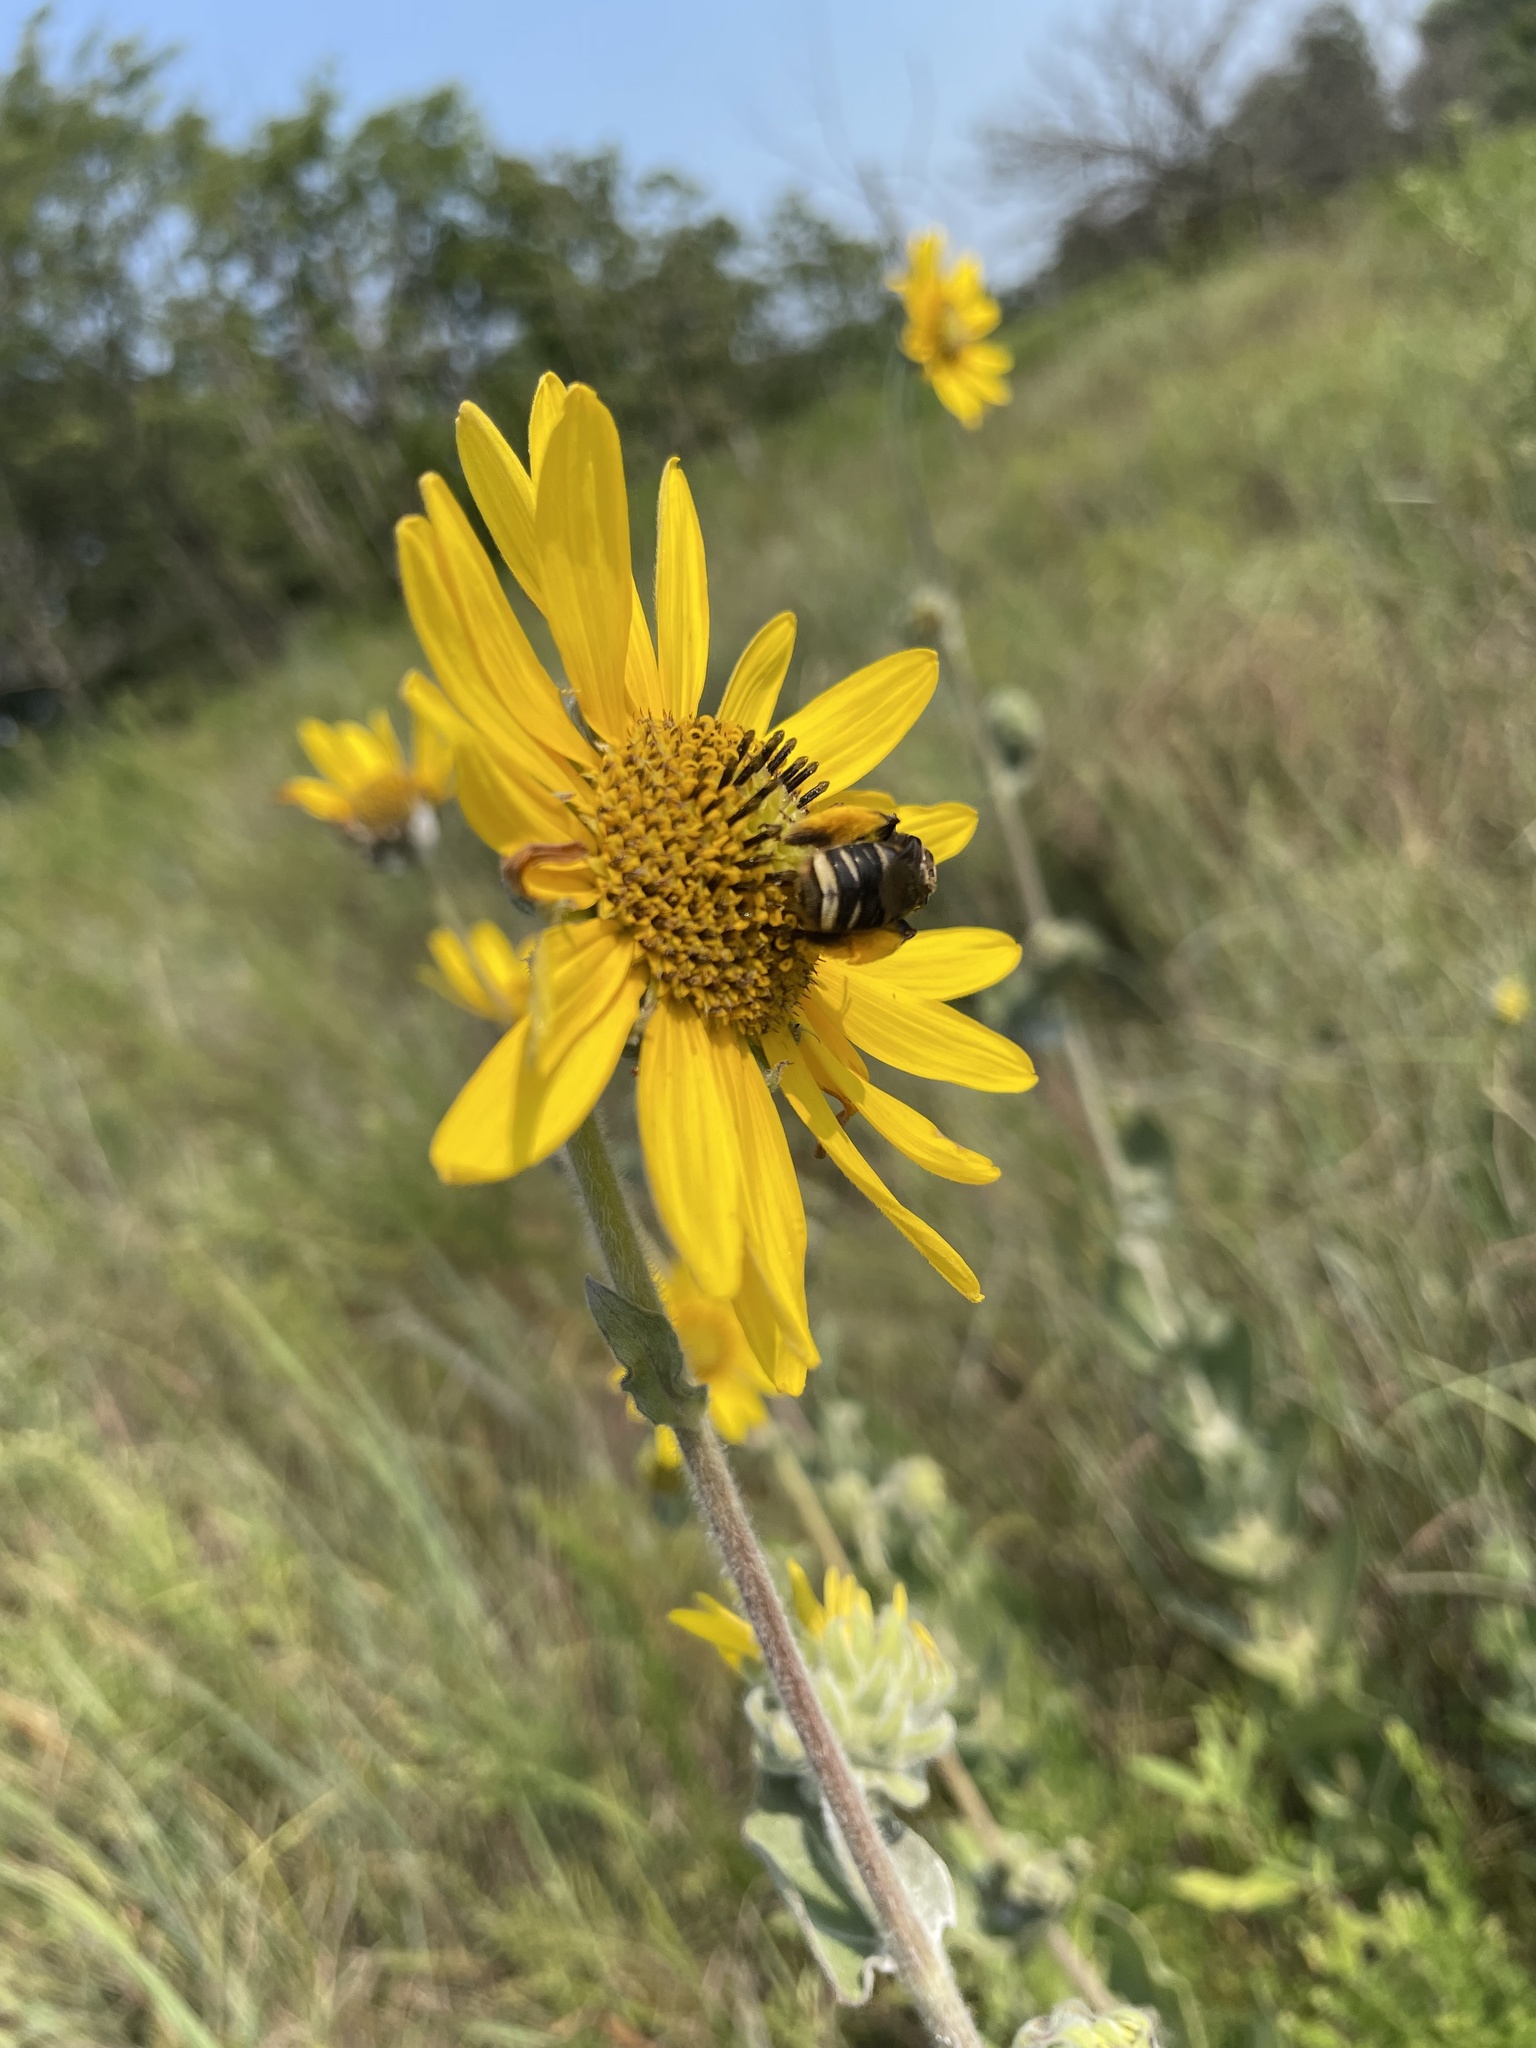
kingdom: Animalia
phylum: Arthropoda
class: Insecta
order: Hymenoptera
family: Apidae
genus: Svastra
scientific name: Svastra obliqua
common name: Oblique longhorn
